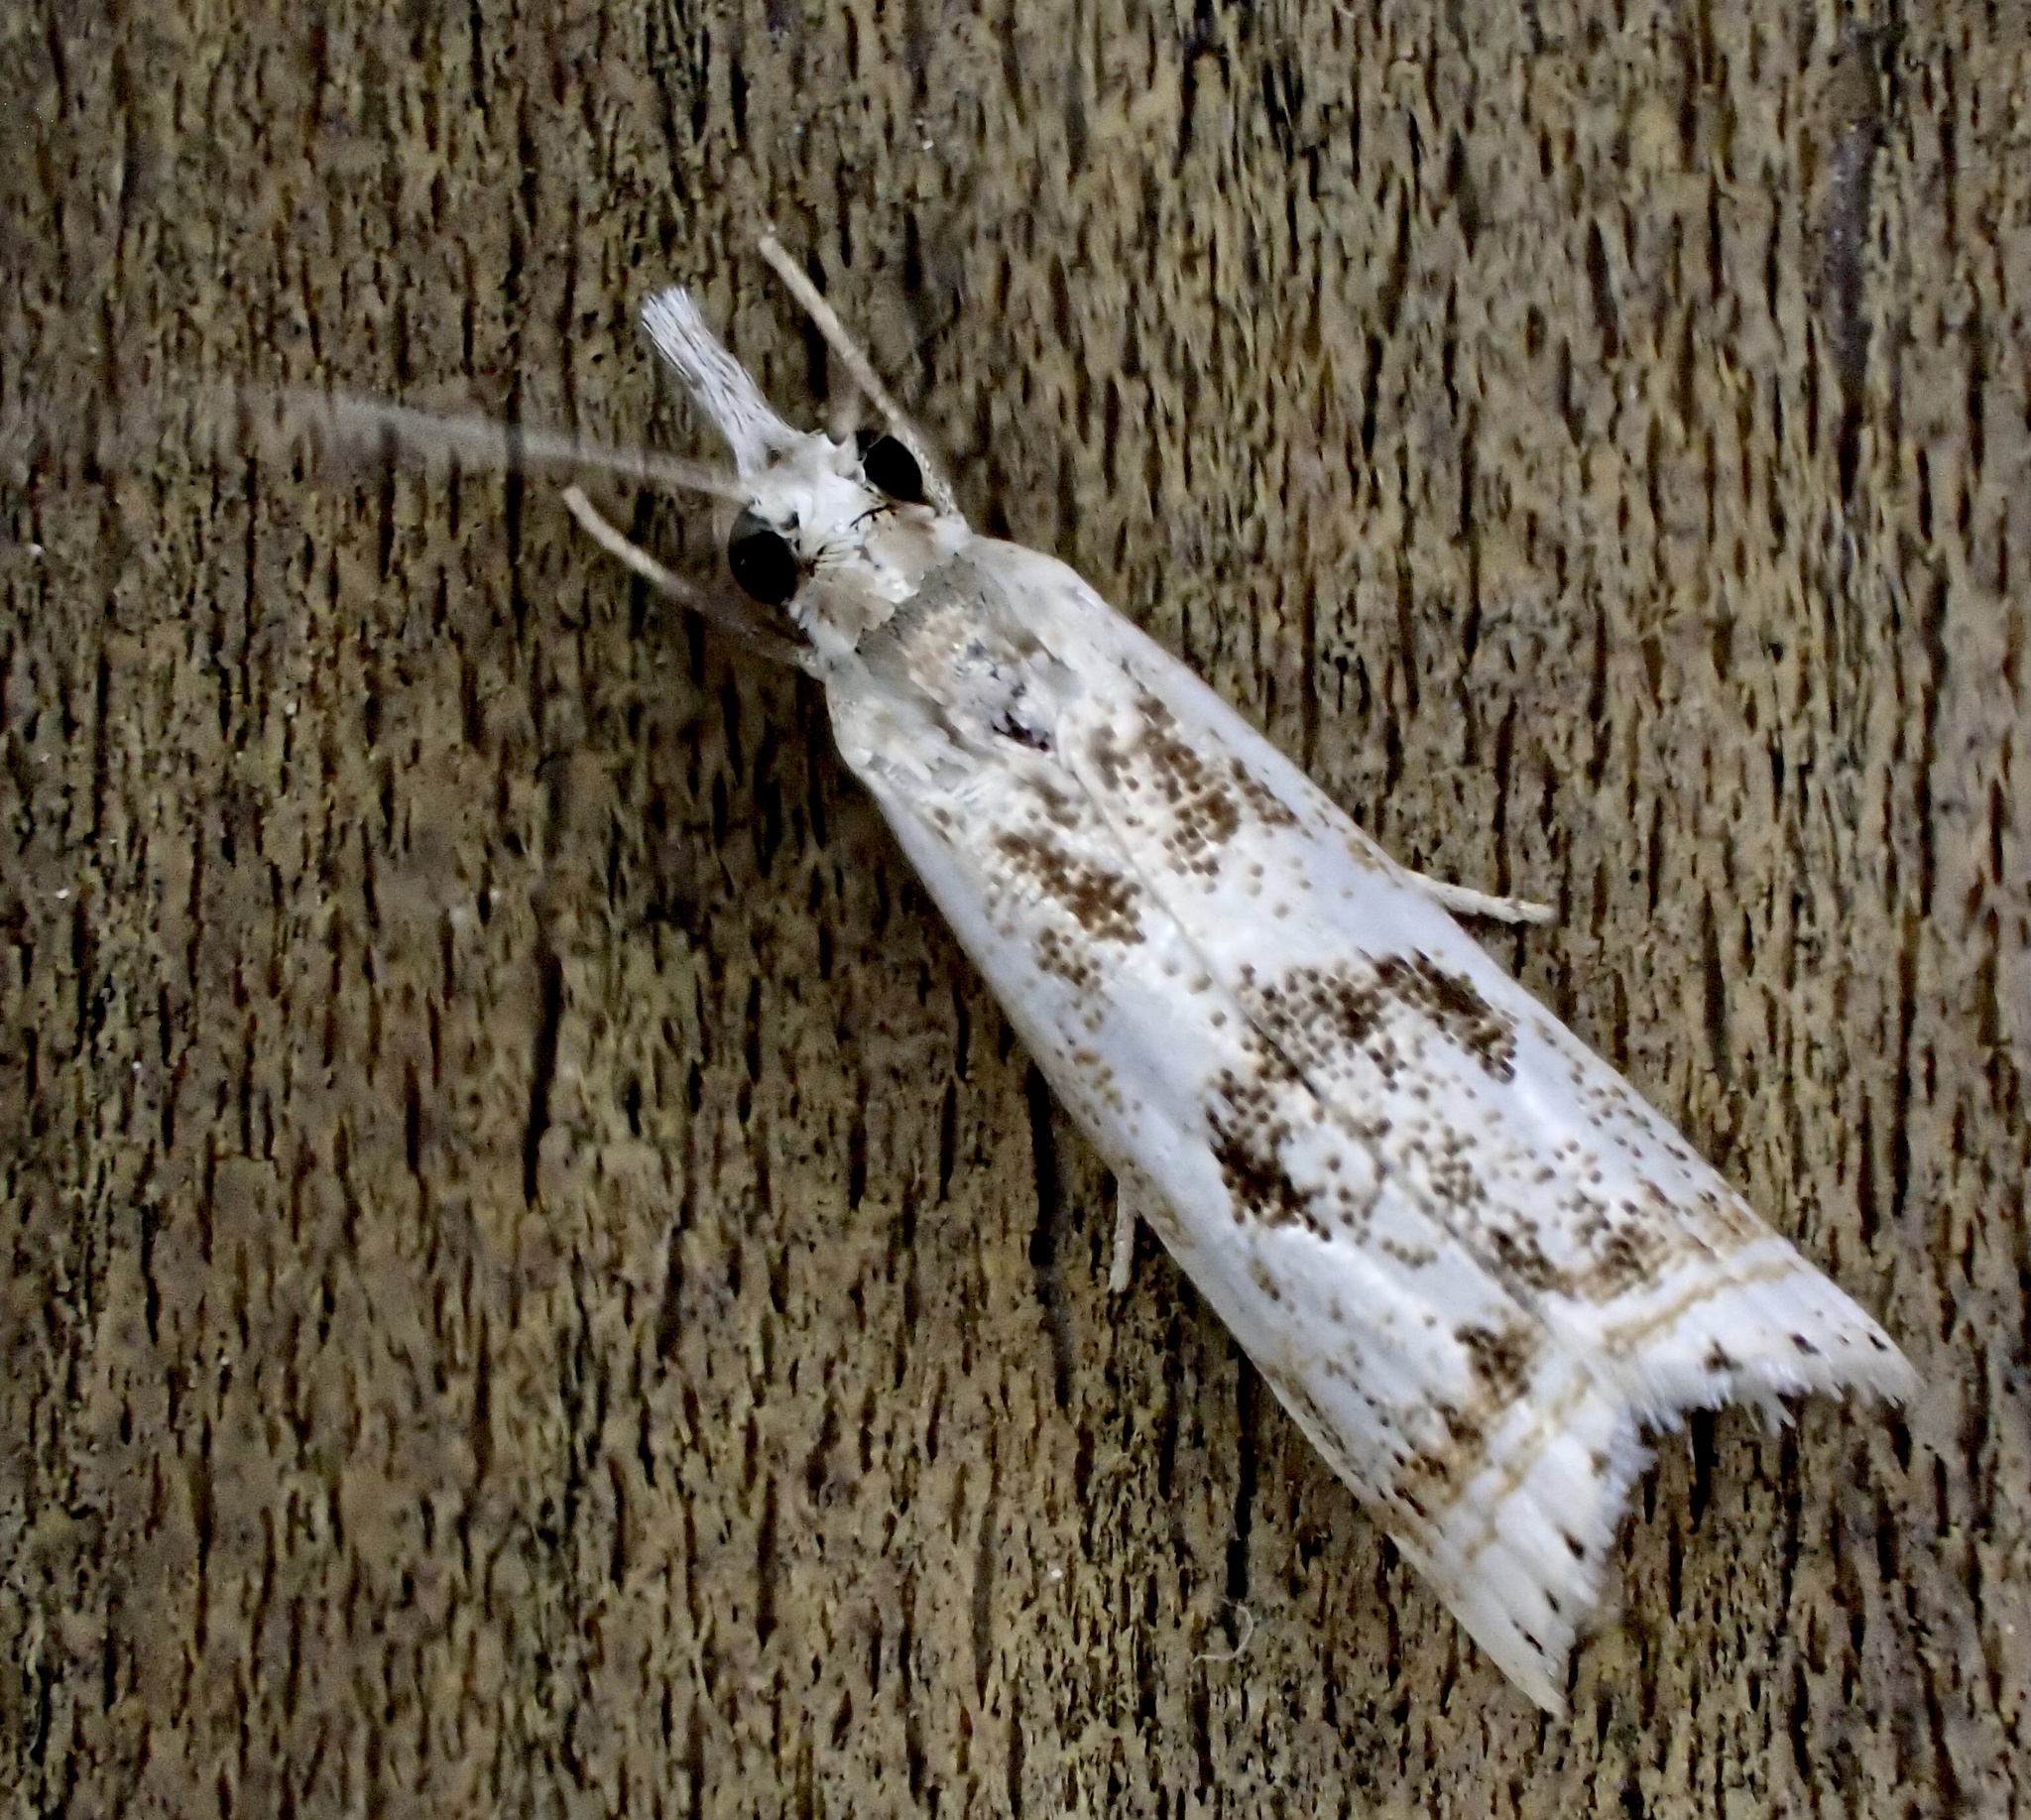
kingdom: Animalia
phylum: Arthropoda
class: Insecta
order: Lepidoptera
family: Crambidae
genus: Microcrambus
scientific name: Microcrambus elegans
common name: Elegant grass-veneer
